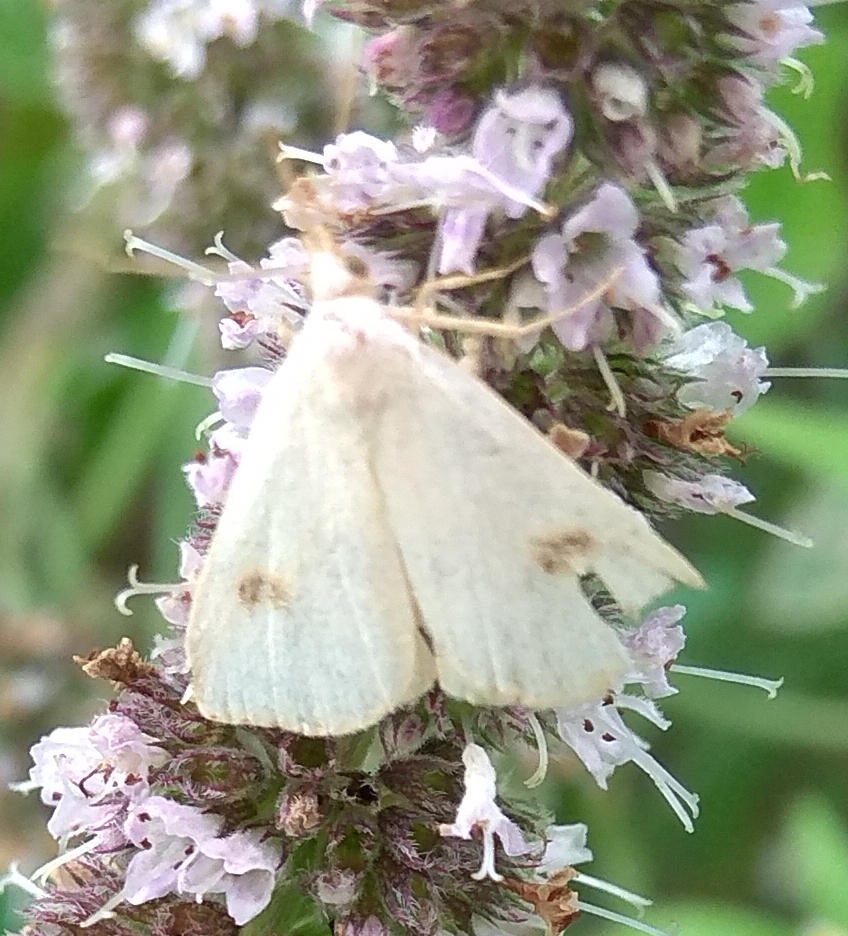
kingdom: Animalia
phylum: Arthropoda
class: Insecta
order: Lepidoptera
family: Erebidae
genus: Rivula
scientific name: Rivula sericealis
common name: Straw dot
